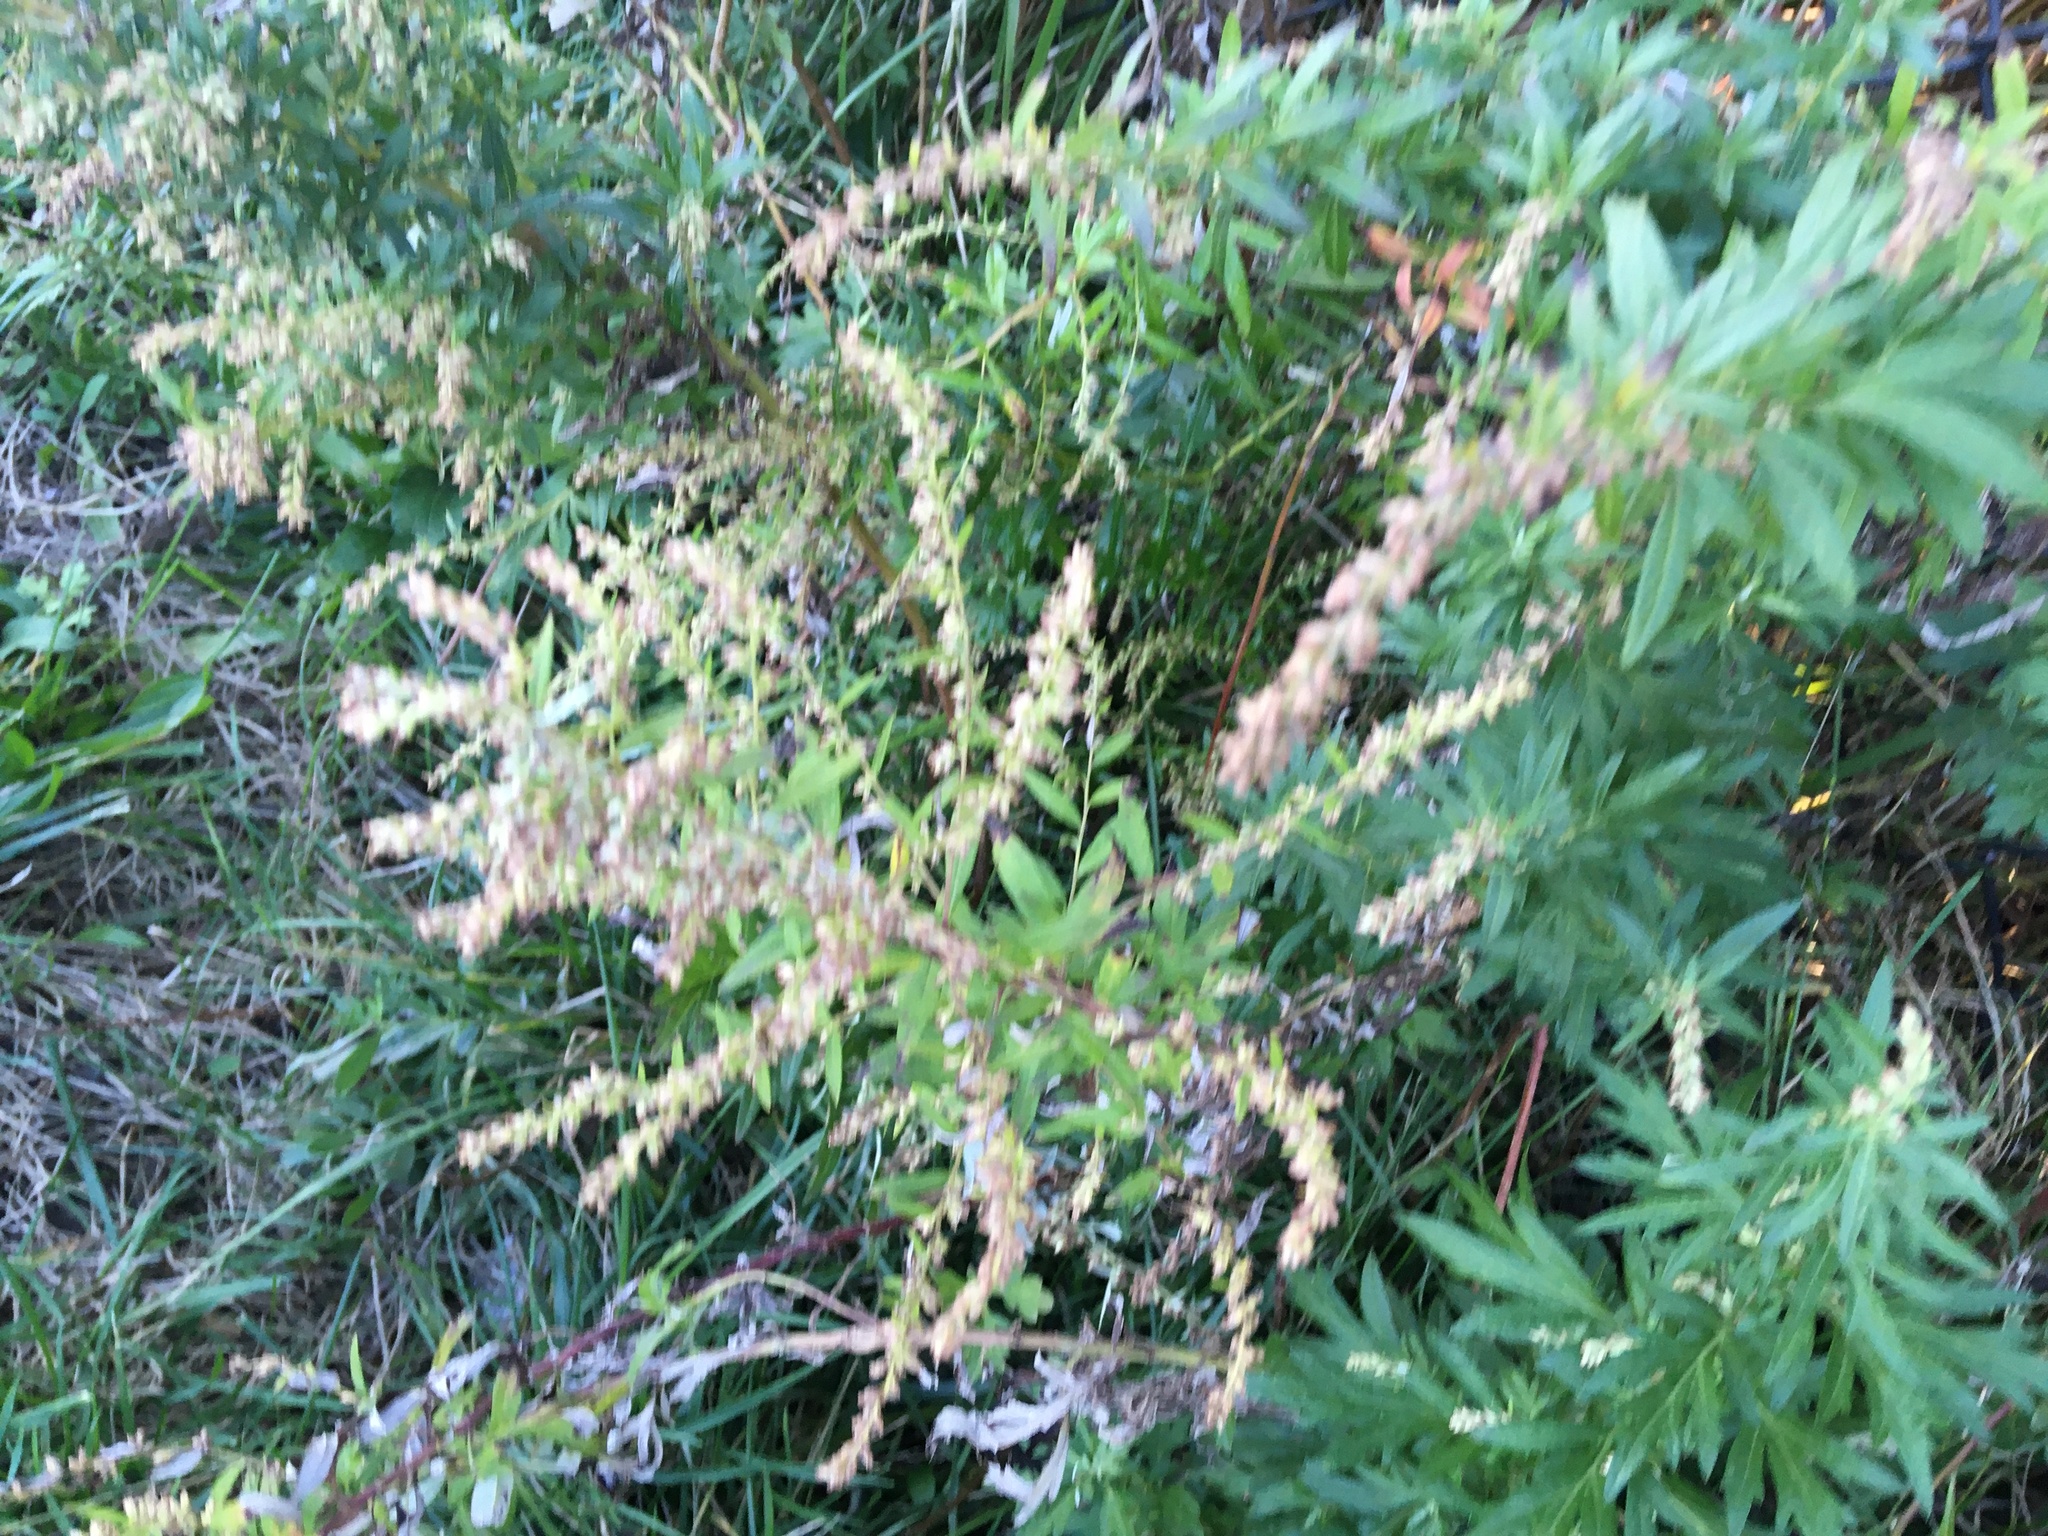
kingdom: Plantae
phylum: Tracheophyta
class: Magnoliopsida
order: Asterales
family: Asteraceae
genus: Artemisia
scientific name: Artemisia vulgaris
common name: Mugwort
